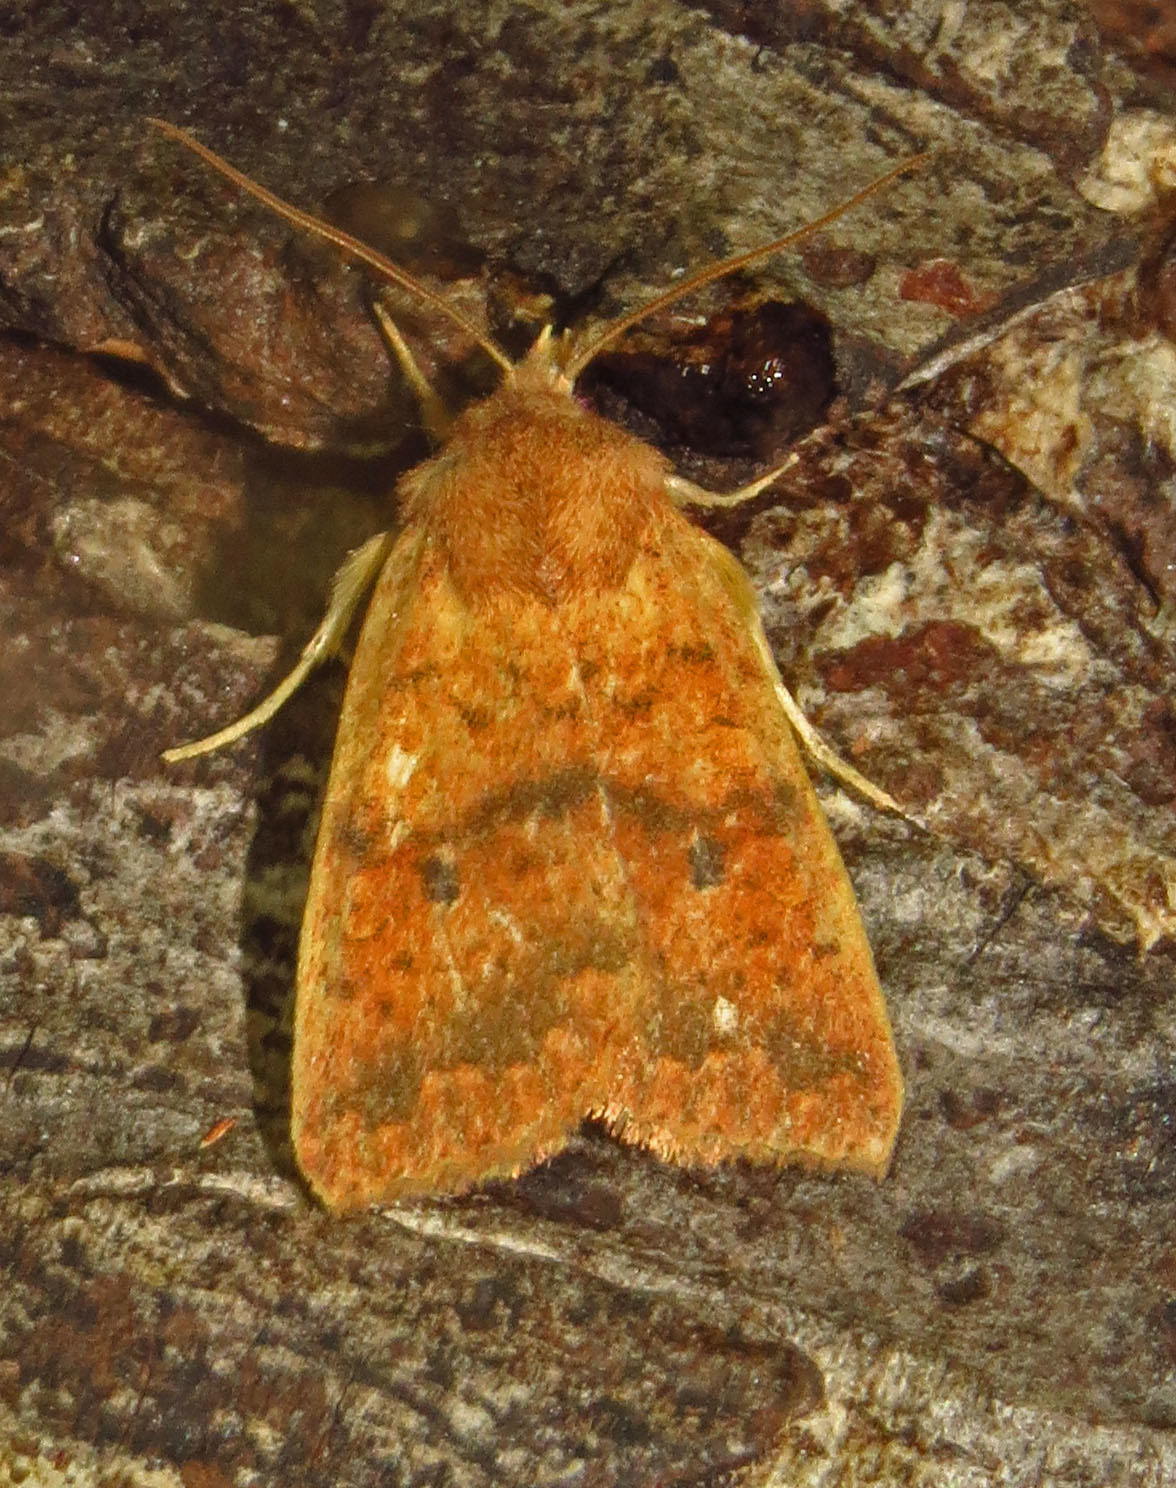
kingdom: Animalia
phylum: Arthropoda
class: Insecta
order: Lepidoptera
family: Noctuidae
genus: Agrochola
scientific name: Agrochola bicolorago
